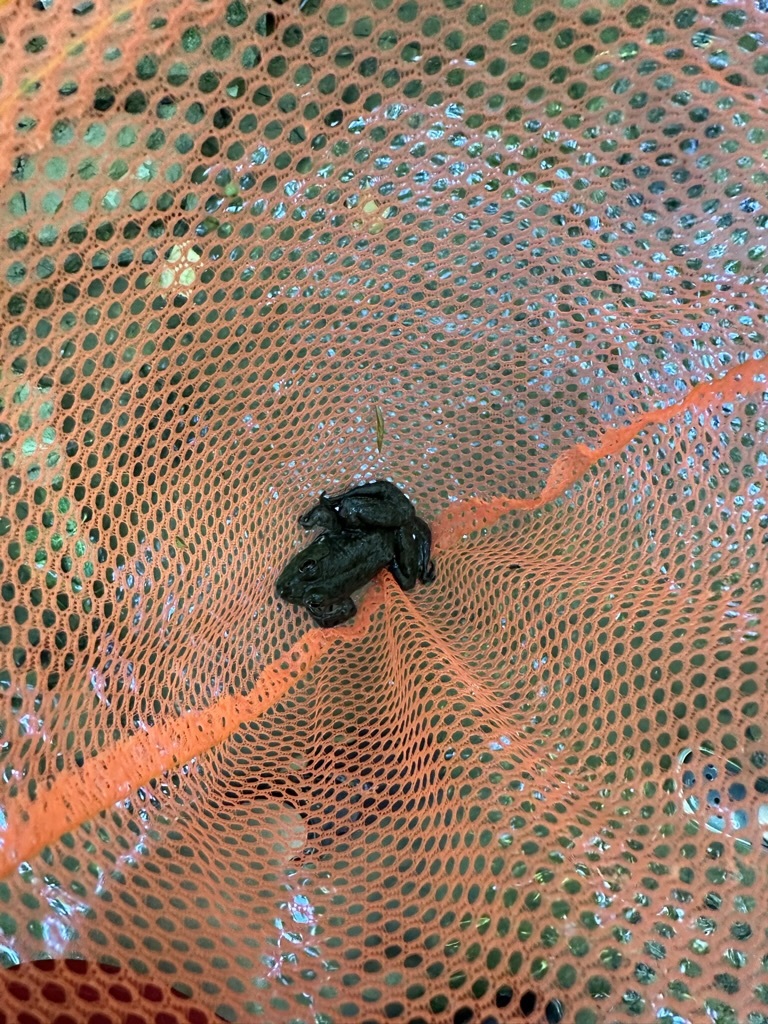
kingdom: Animalia
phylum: Chordata
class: Amphibia
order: Anura
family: Ranidae
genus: Lithobates
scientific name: Lithobates catesbeianus
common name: American bullfrog
